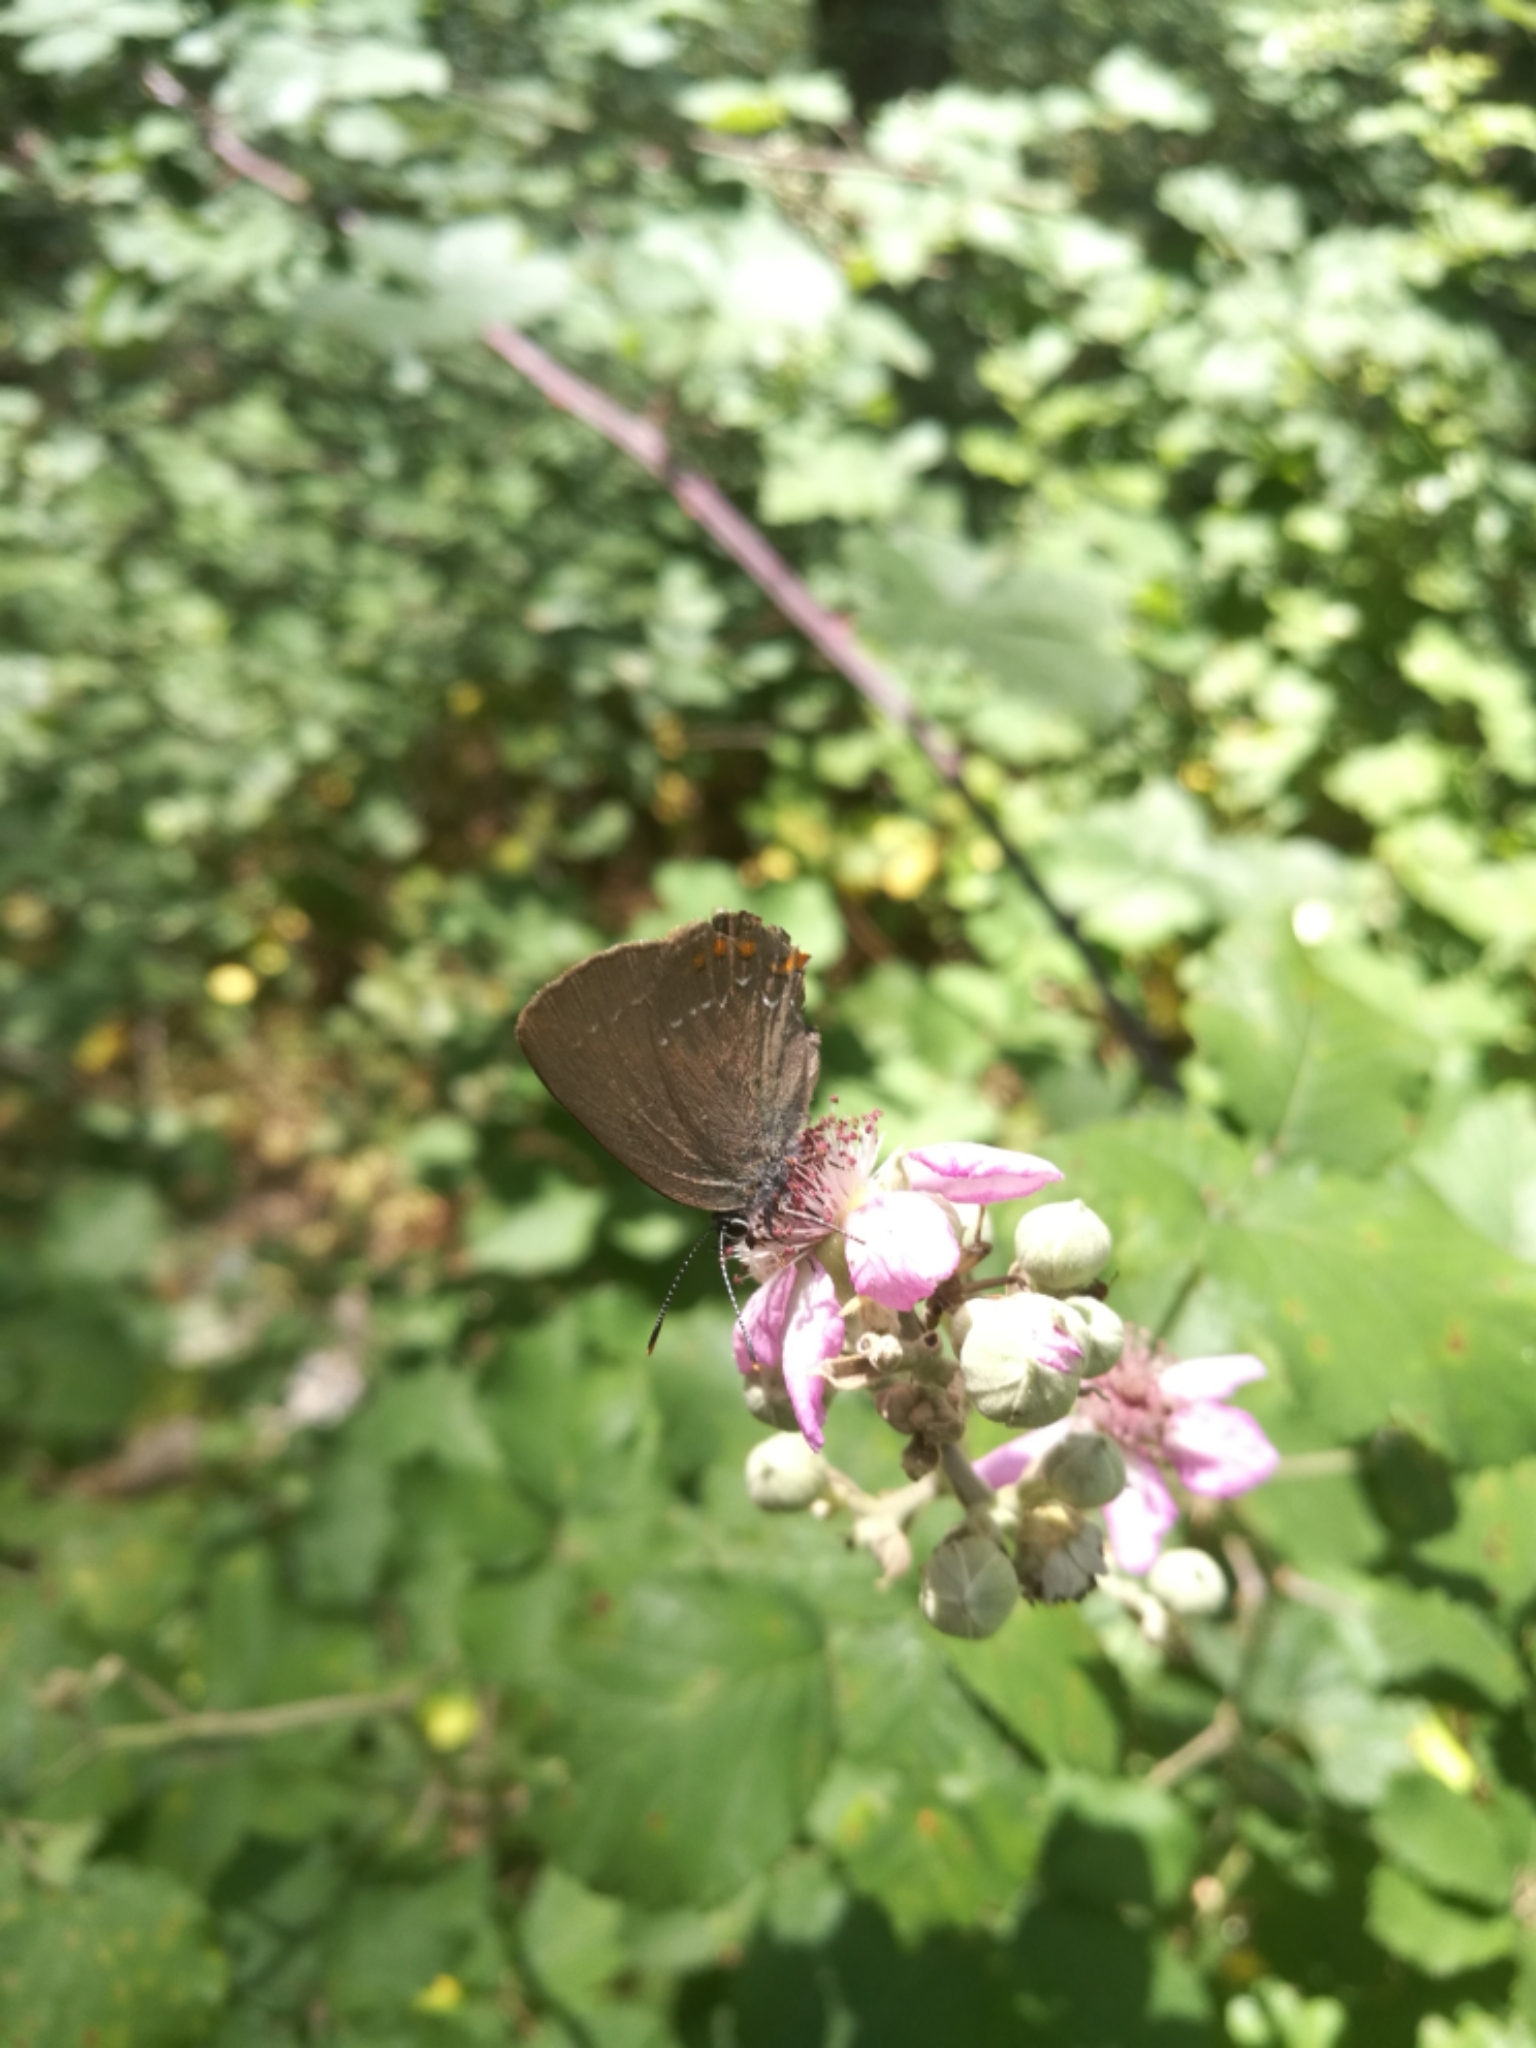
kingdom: Animalia
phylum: Arthropoda
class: Insecta
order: Lepidoptera
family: Lycaenidae
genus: Nordmannia
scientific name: Nordmannia ilicis
